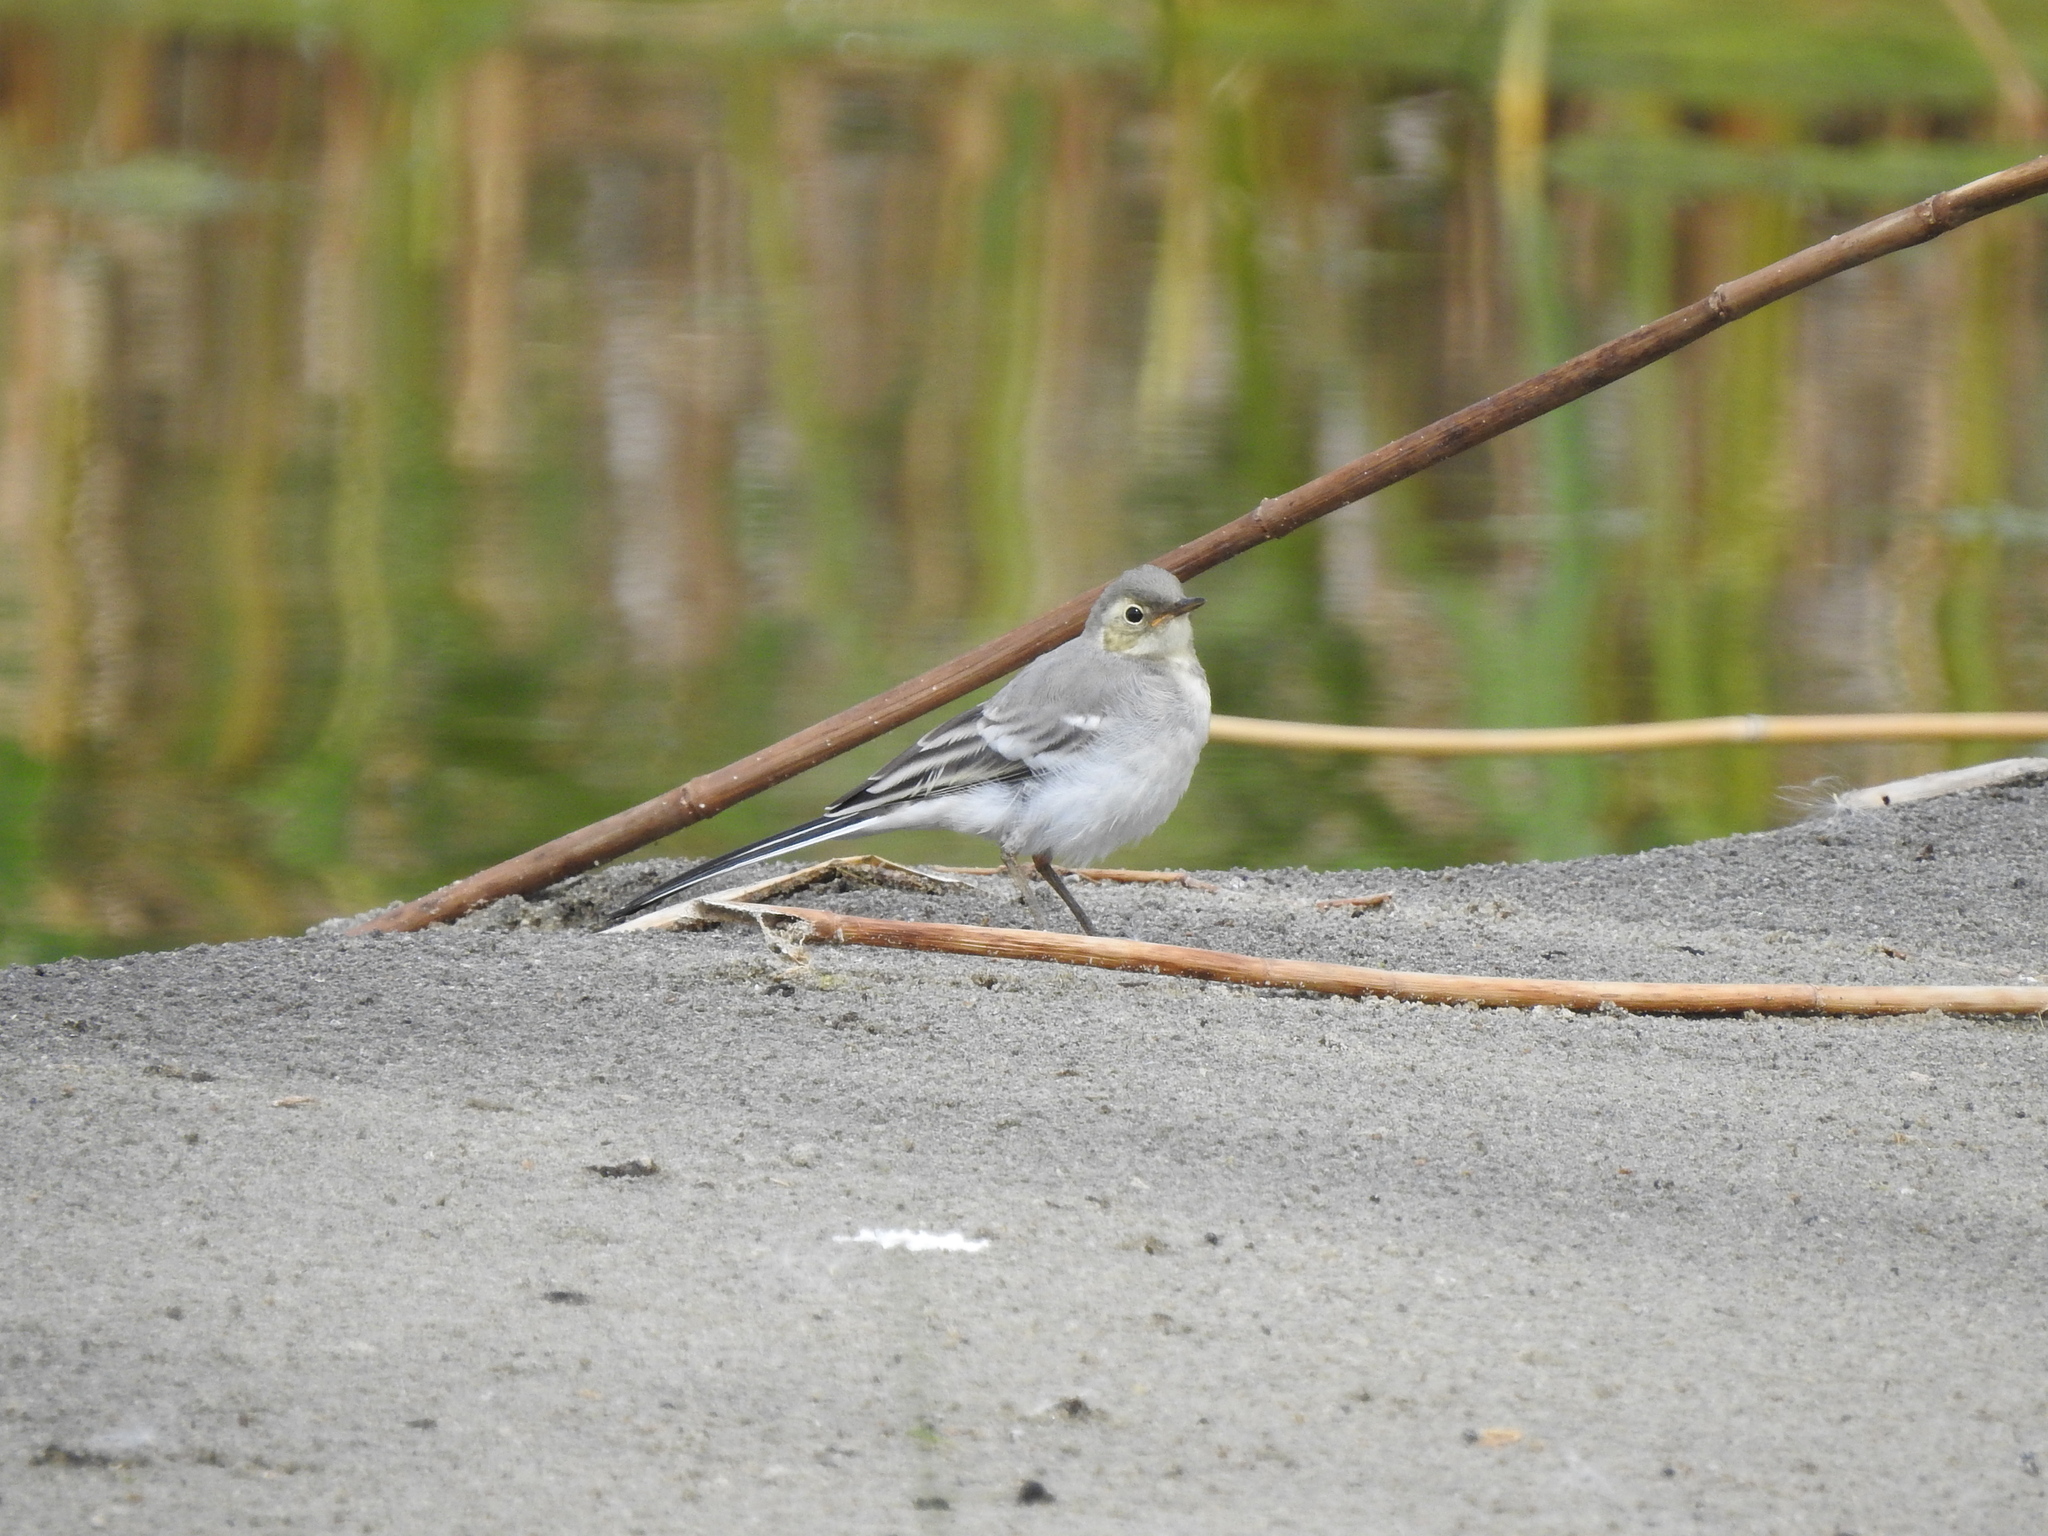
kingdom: Animalia
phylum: Chordata
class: Aves
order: Passeriformes
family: Motacillidae
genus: Motacilla
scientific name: Motacilla alba
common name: White wagtail
